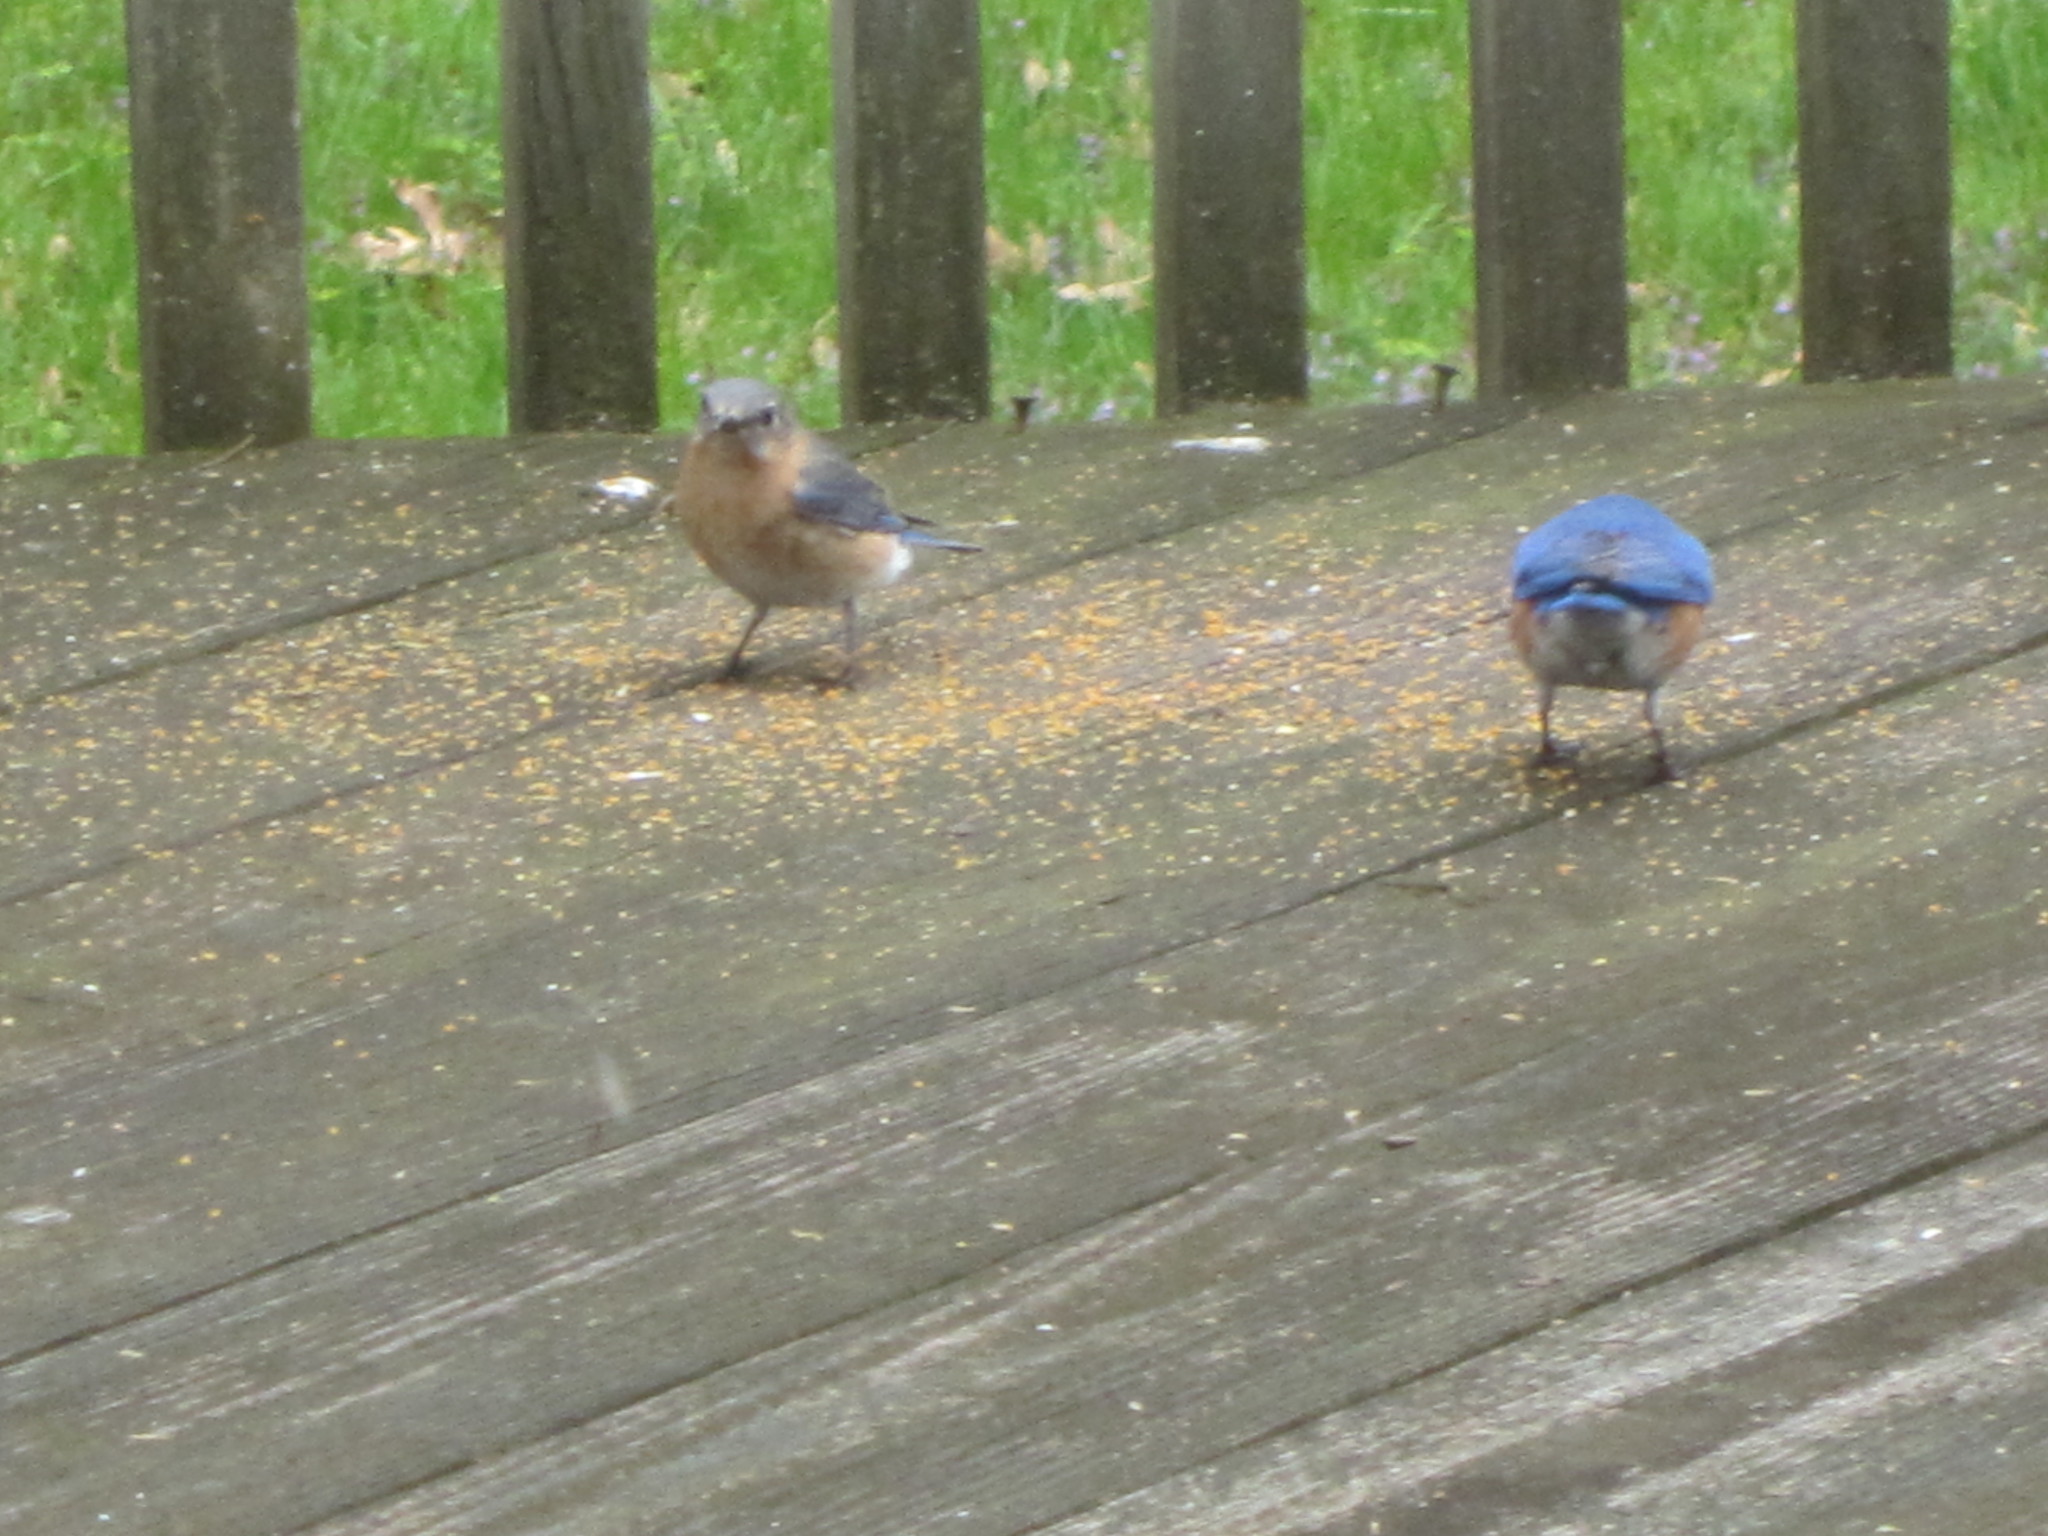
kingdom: Animalia
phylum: Chordata
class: Aves
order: Passeriformes
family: Turdidae
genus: Sialia
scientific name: Sialia sialis
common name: Eastern bluebird
